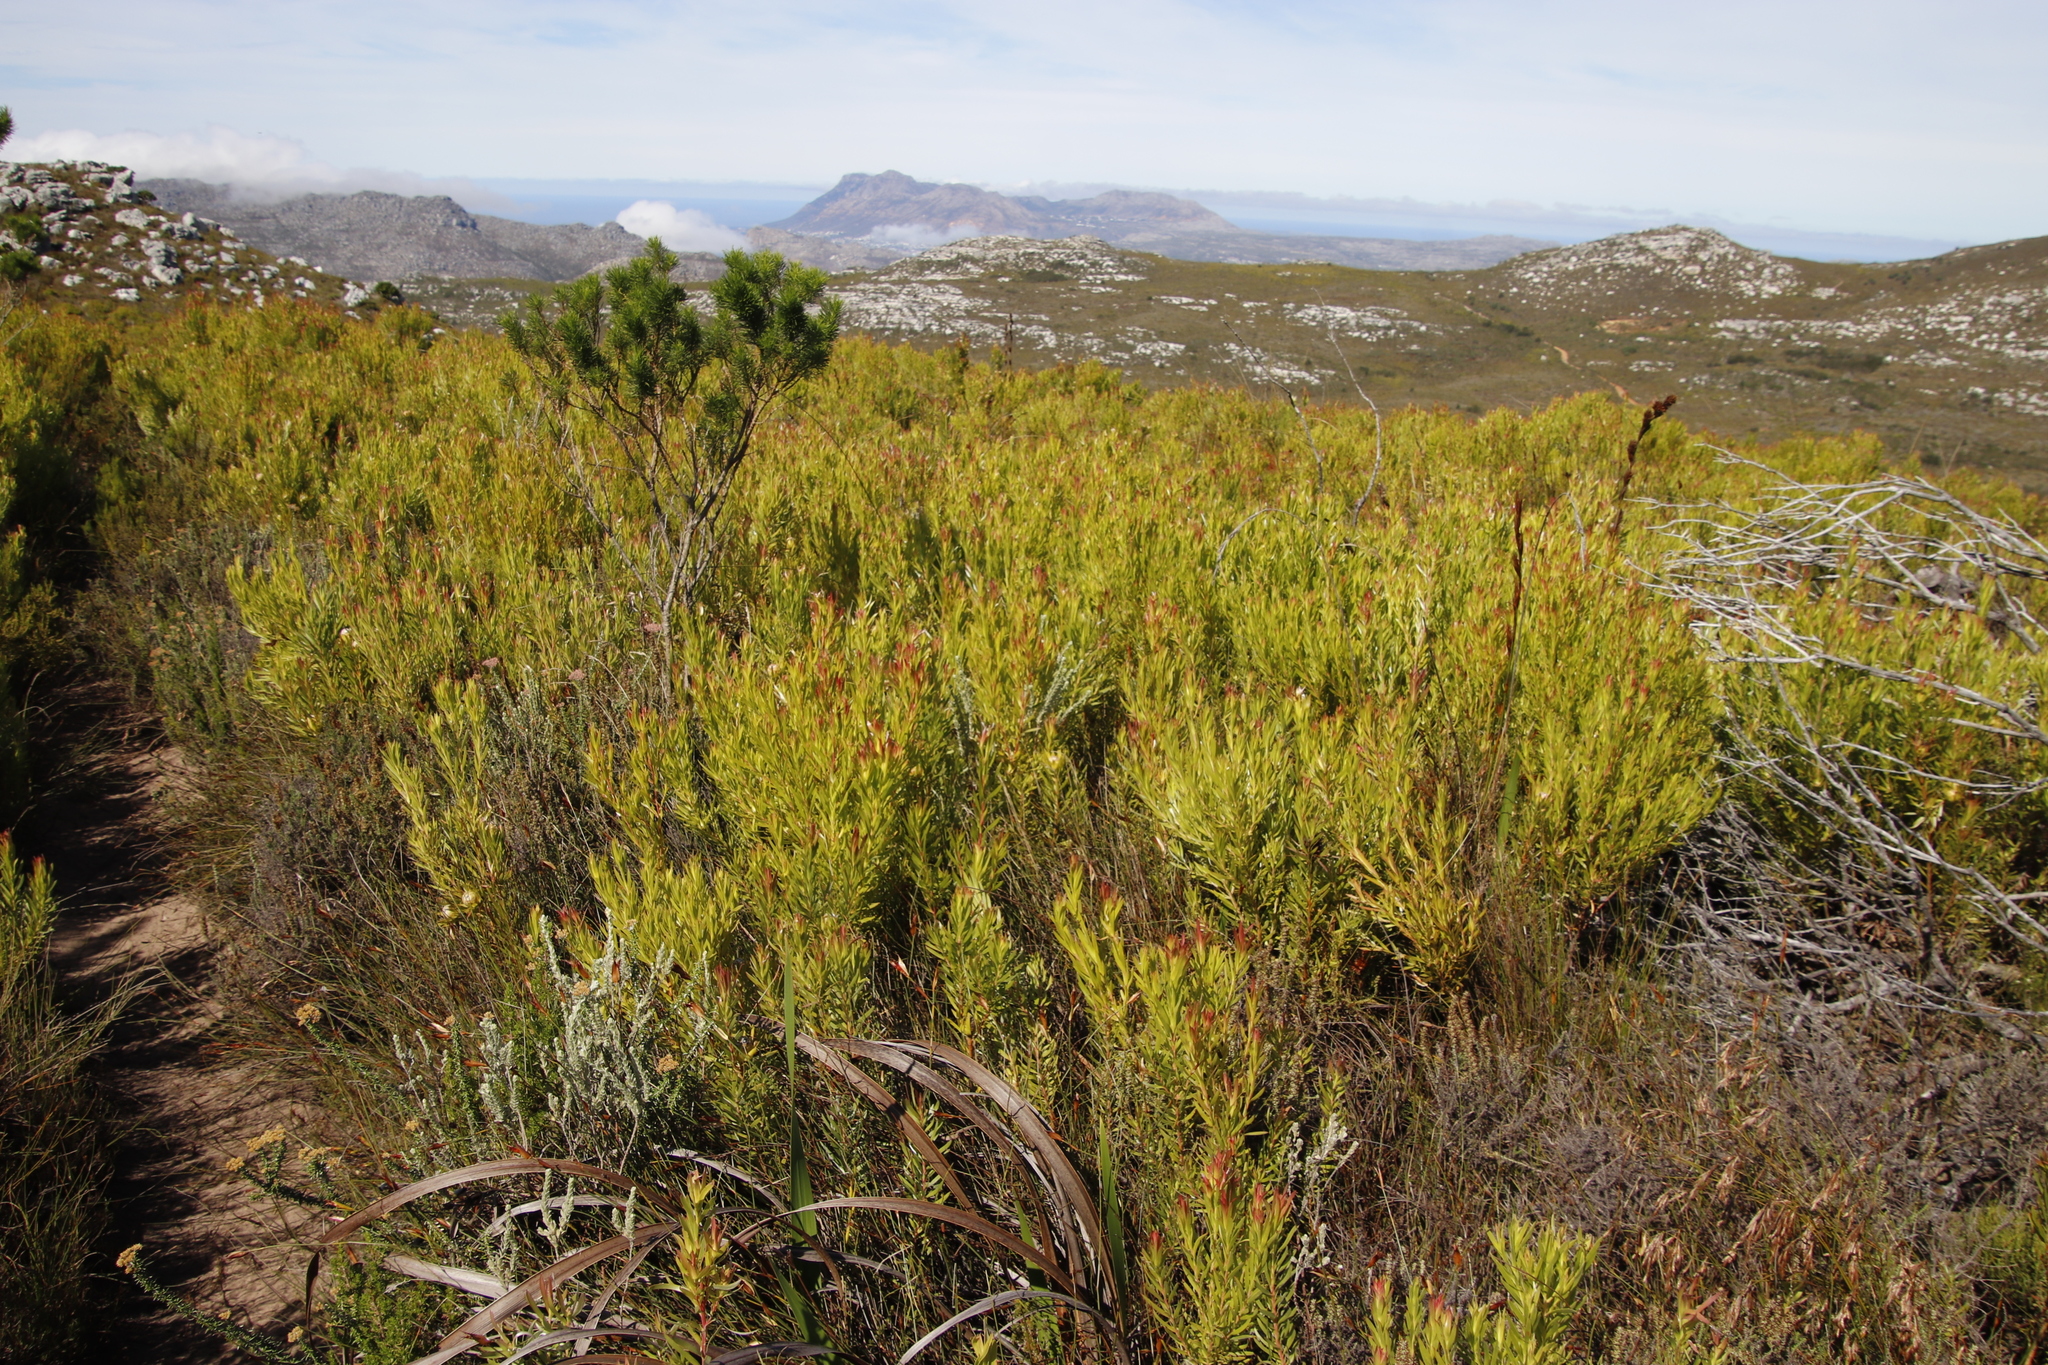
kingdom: Plantae
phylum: Tracheophyta
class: Magnoliopsida
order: Proteales
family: Proteaceae
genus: Leucadendron
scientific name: Leucadendron xanthoconus
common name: Sickle-leaf conebush
